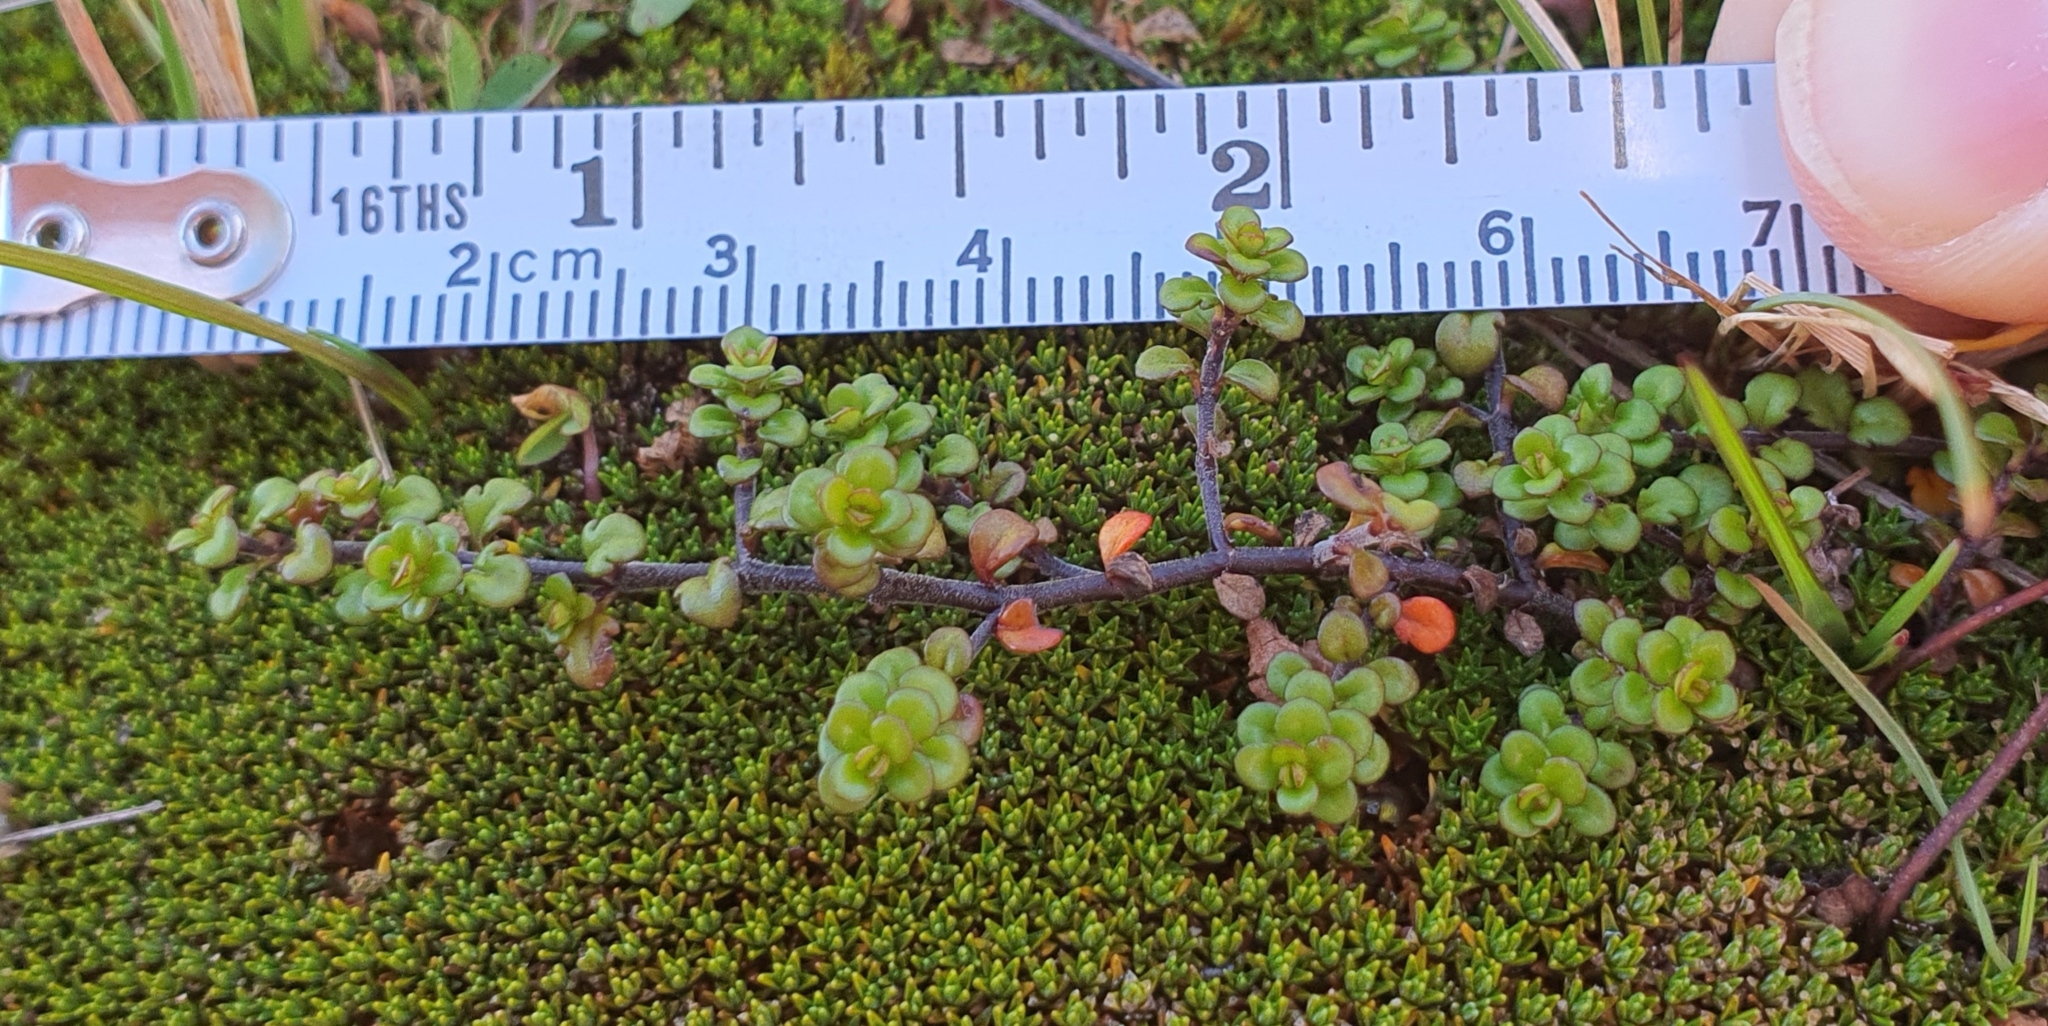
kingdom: Plantae
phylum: Tracheophyta
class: Magnoliopsida
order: Lamiales
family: Plantaginaceae
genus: Veronica
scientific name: Veronica decora
